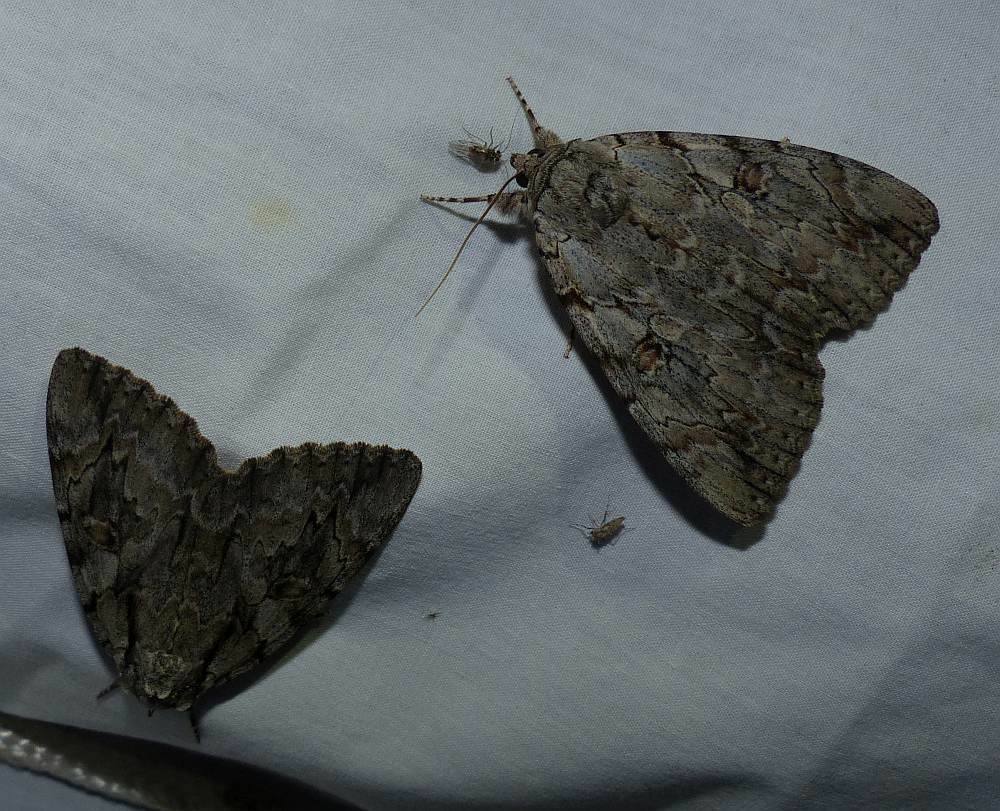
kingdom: Animalia
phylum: Arthropoda
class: Insecta
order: Lepidoptera
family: Erebidae
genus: Catocala
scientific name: Catocala subnata
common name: Youthful underwing
